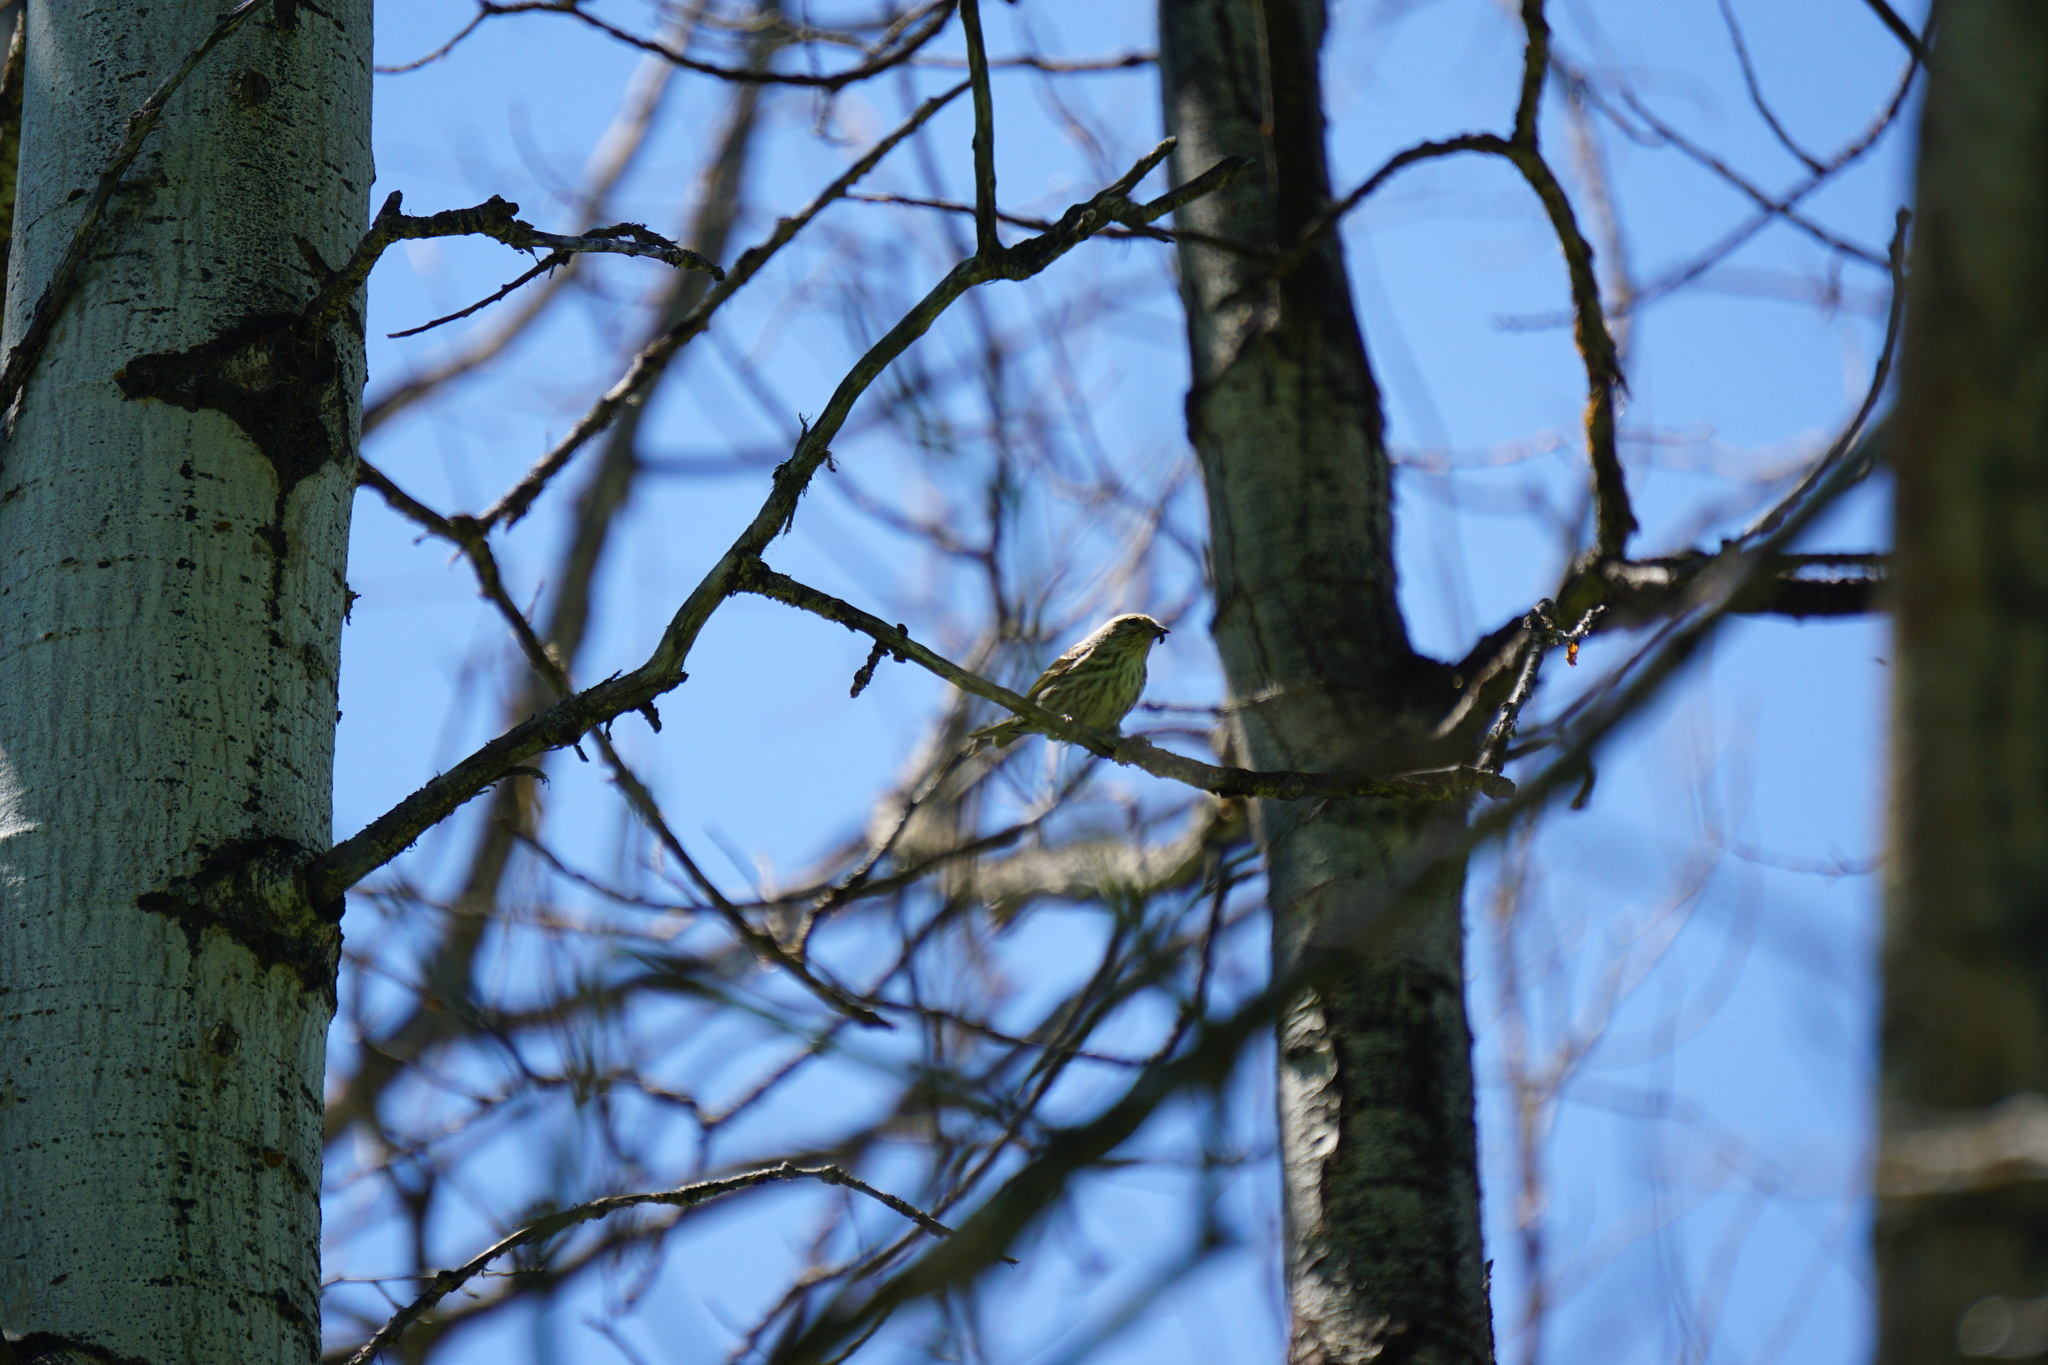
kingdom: Animalia
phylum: Chordata
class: Aves
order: Passeriformes
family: Fringillidae
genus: Spinus
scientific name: Spinus pinus
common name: Pine siskin
